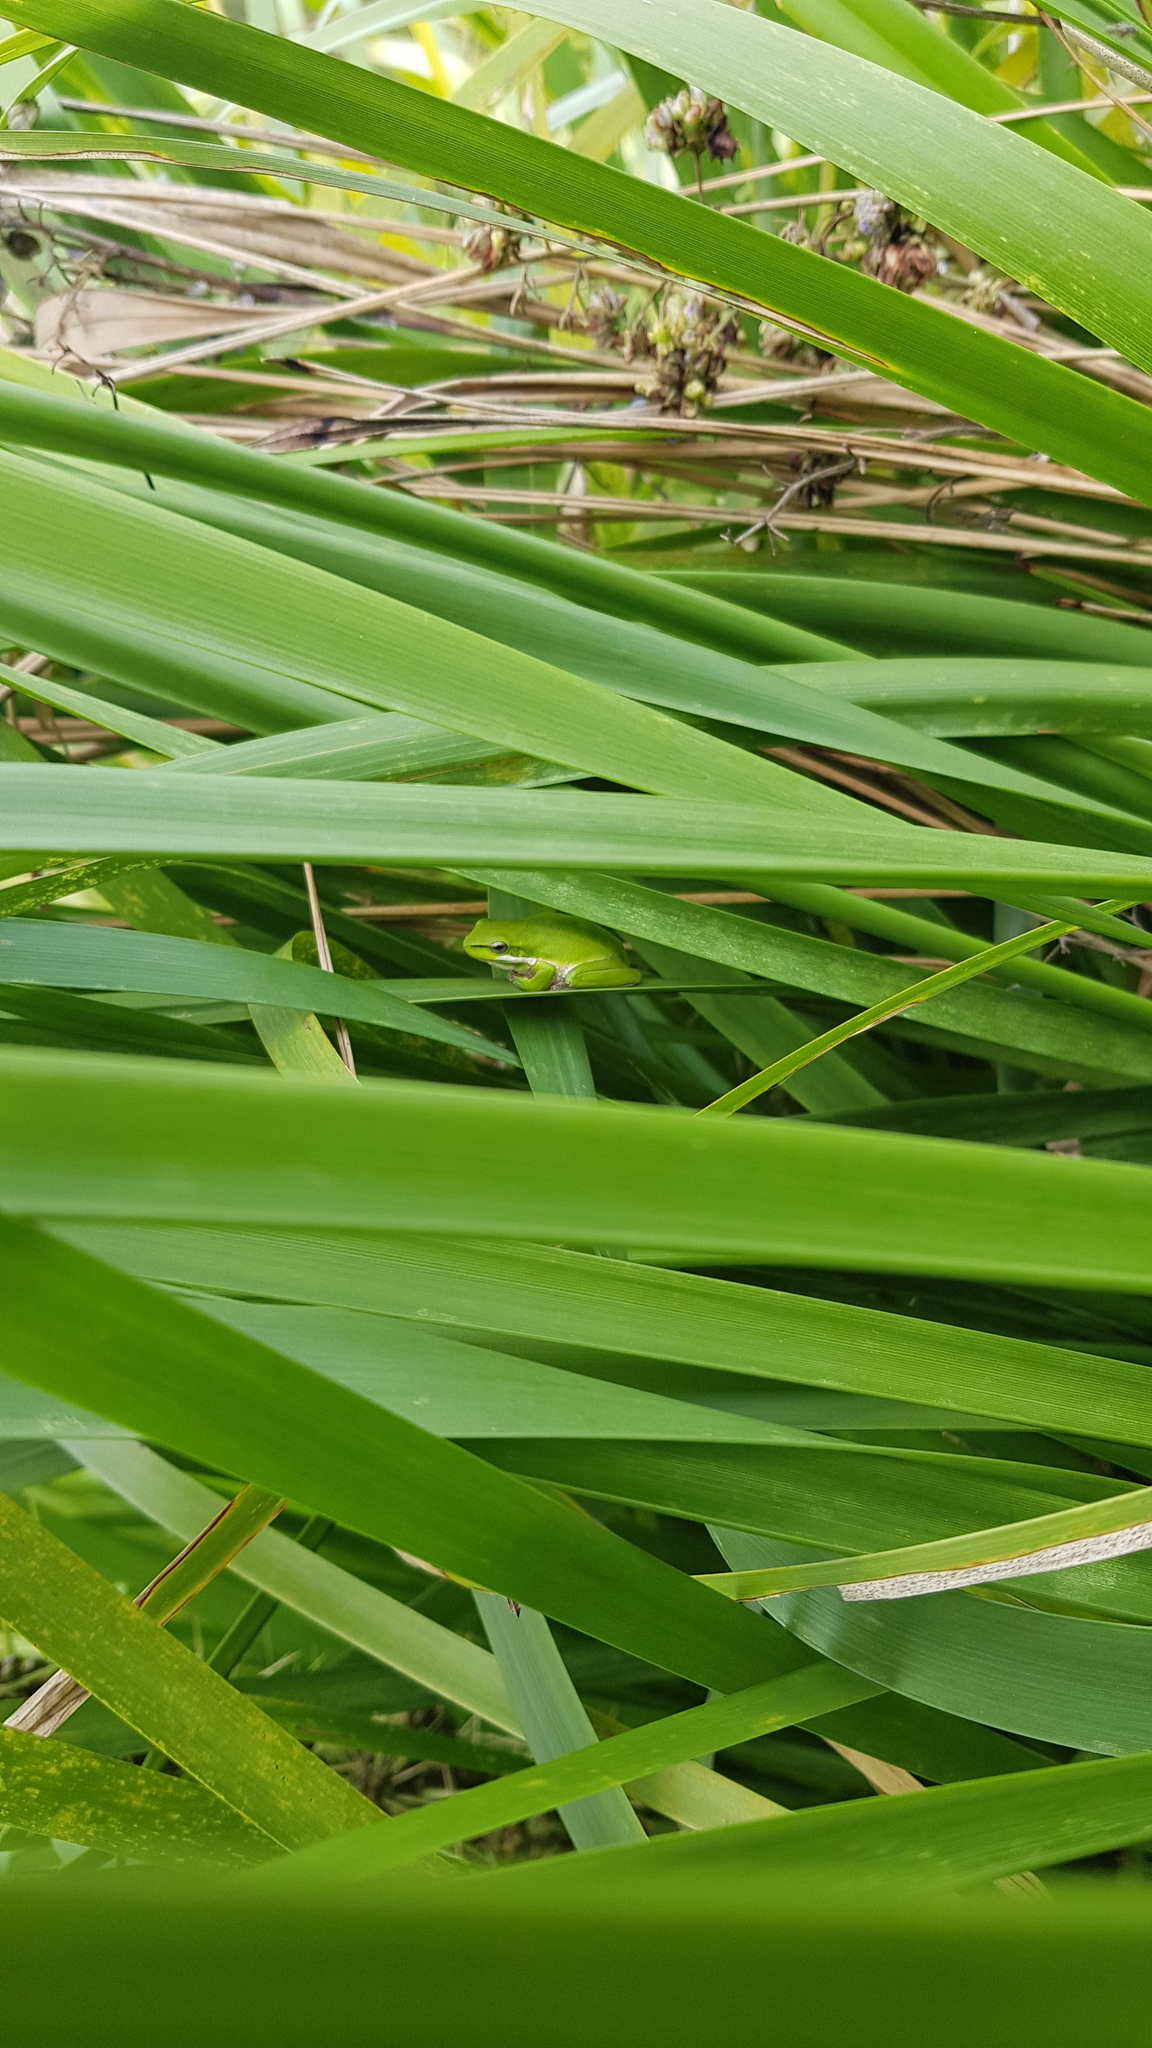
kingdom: Animalia
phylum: Chordata
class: Amphibia
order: Anura
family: Pelodryadidae
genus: Litoria
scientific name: Litoria fallax
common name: Eastern dwarf treefrog
